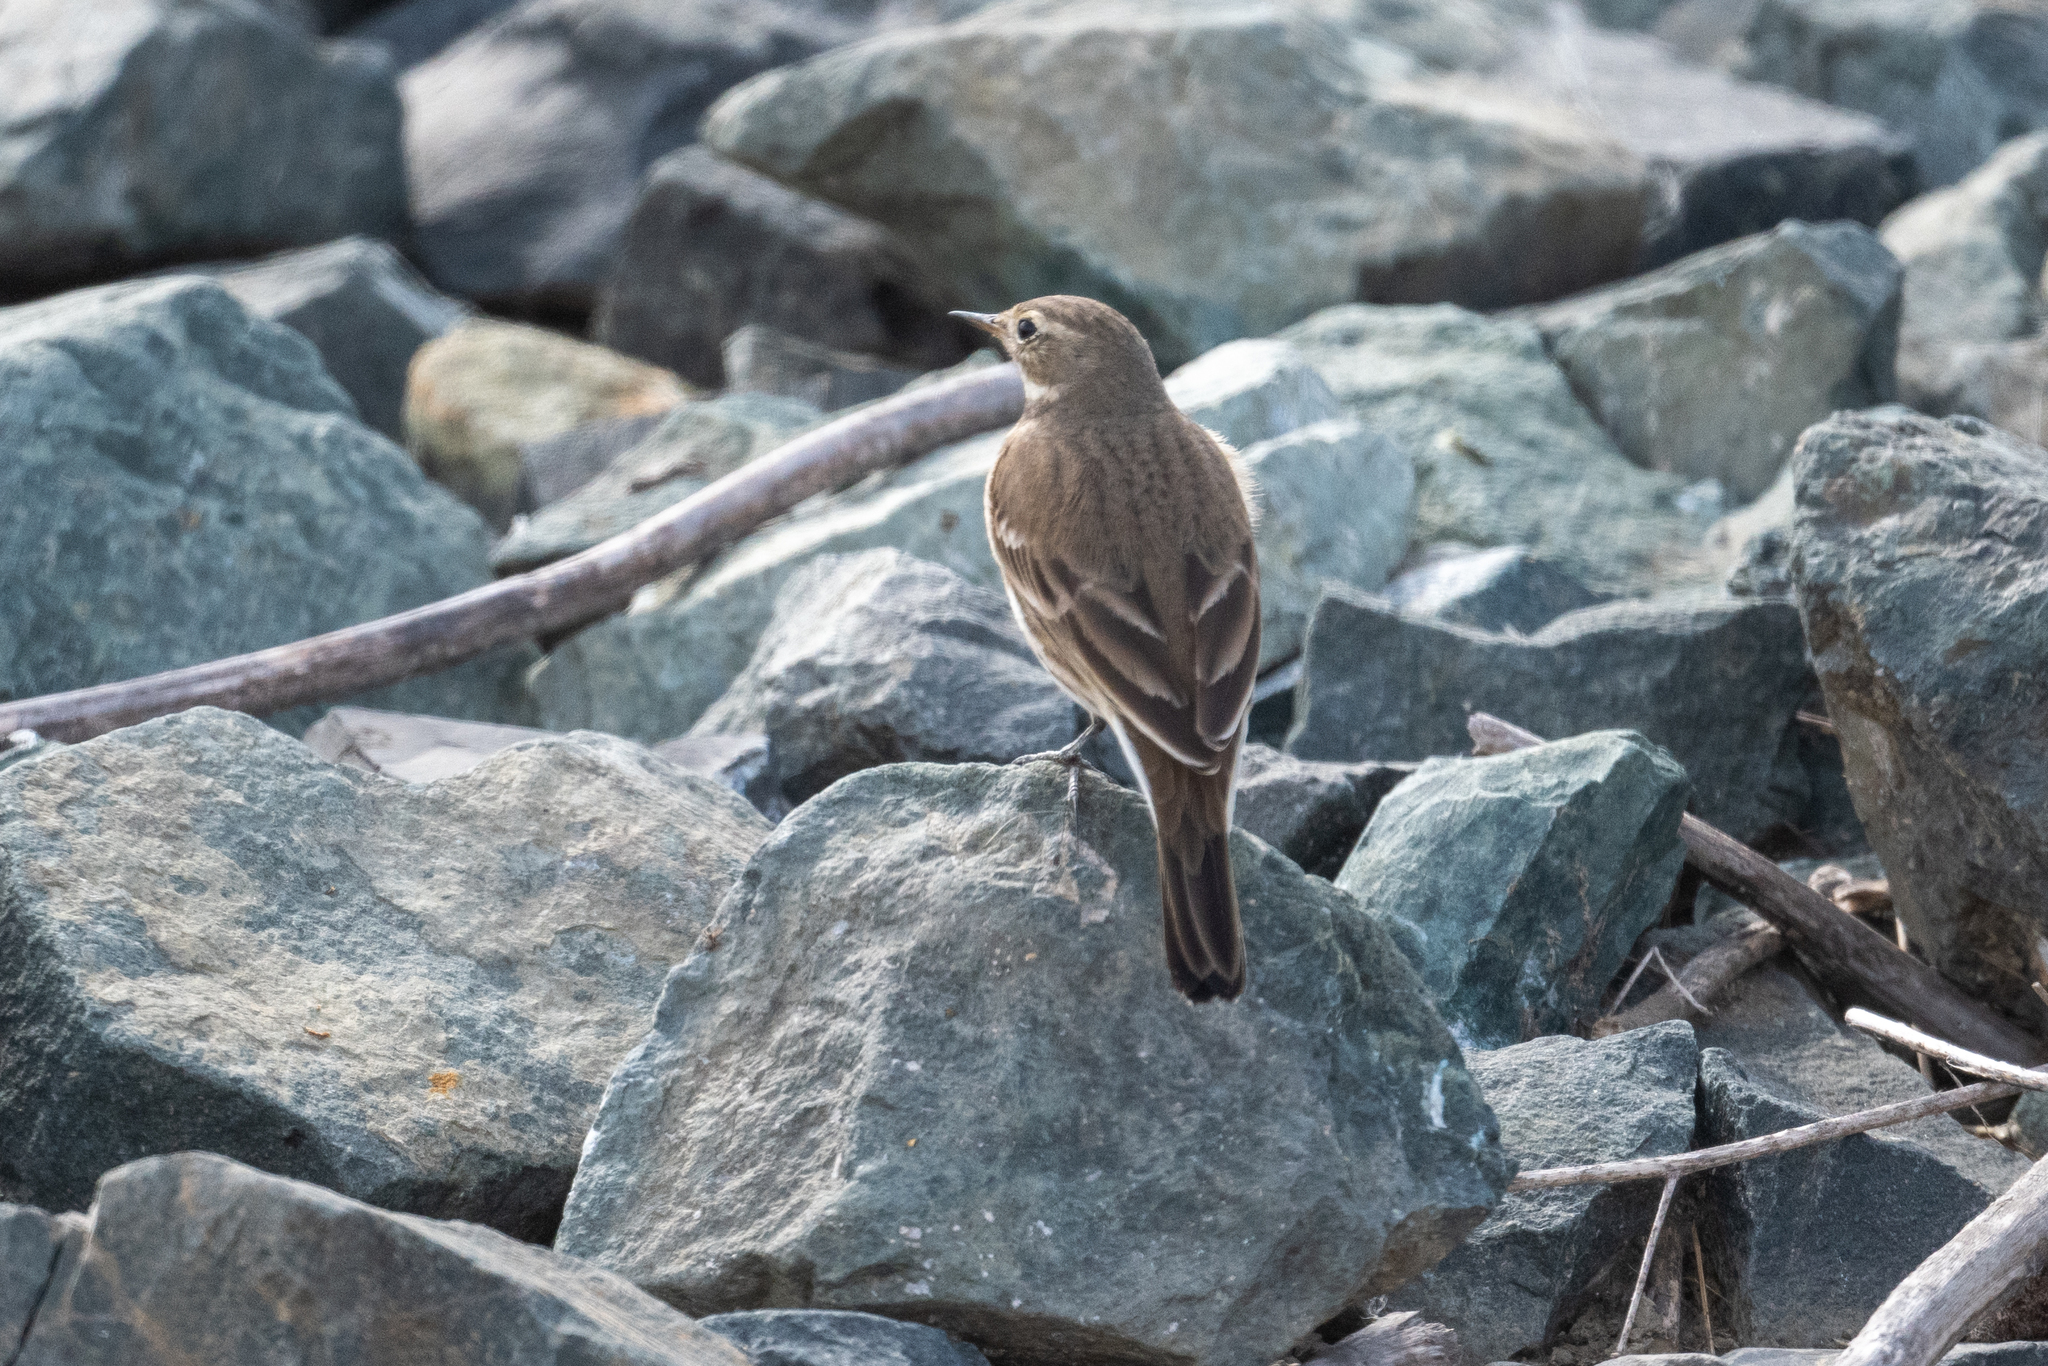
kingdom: Animalia
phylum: Chordata
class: Aves
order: Passeriformes
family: Motacillidae
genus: Anthus
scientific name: Anthus rubescens
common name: Buff-bellied pipit
